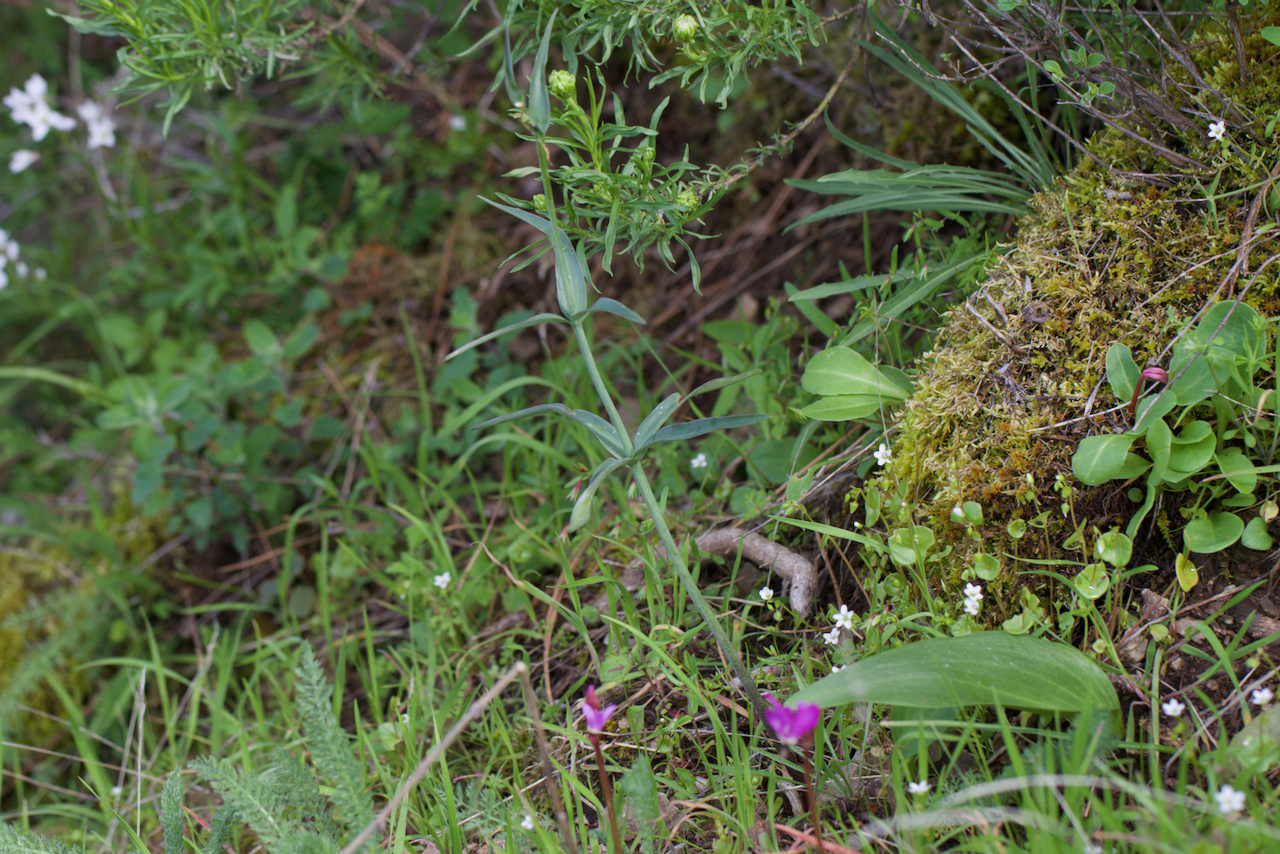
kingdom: Plantae
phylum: Tracheophyta
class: Liliopsida
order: Liliales
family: Liliaceae
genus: Fritillaria
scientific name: Fritillaria affinis
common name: Ojai fritillary
